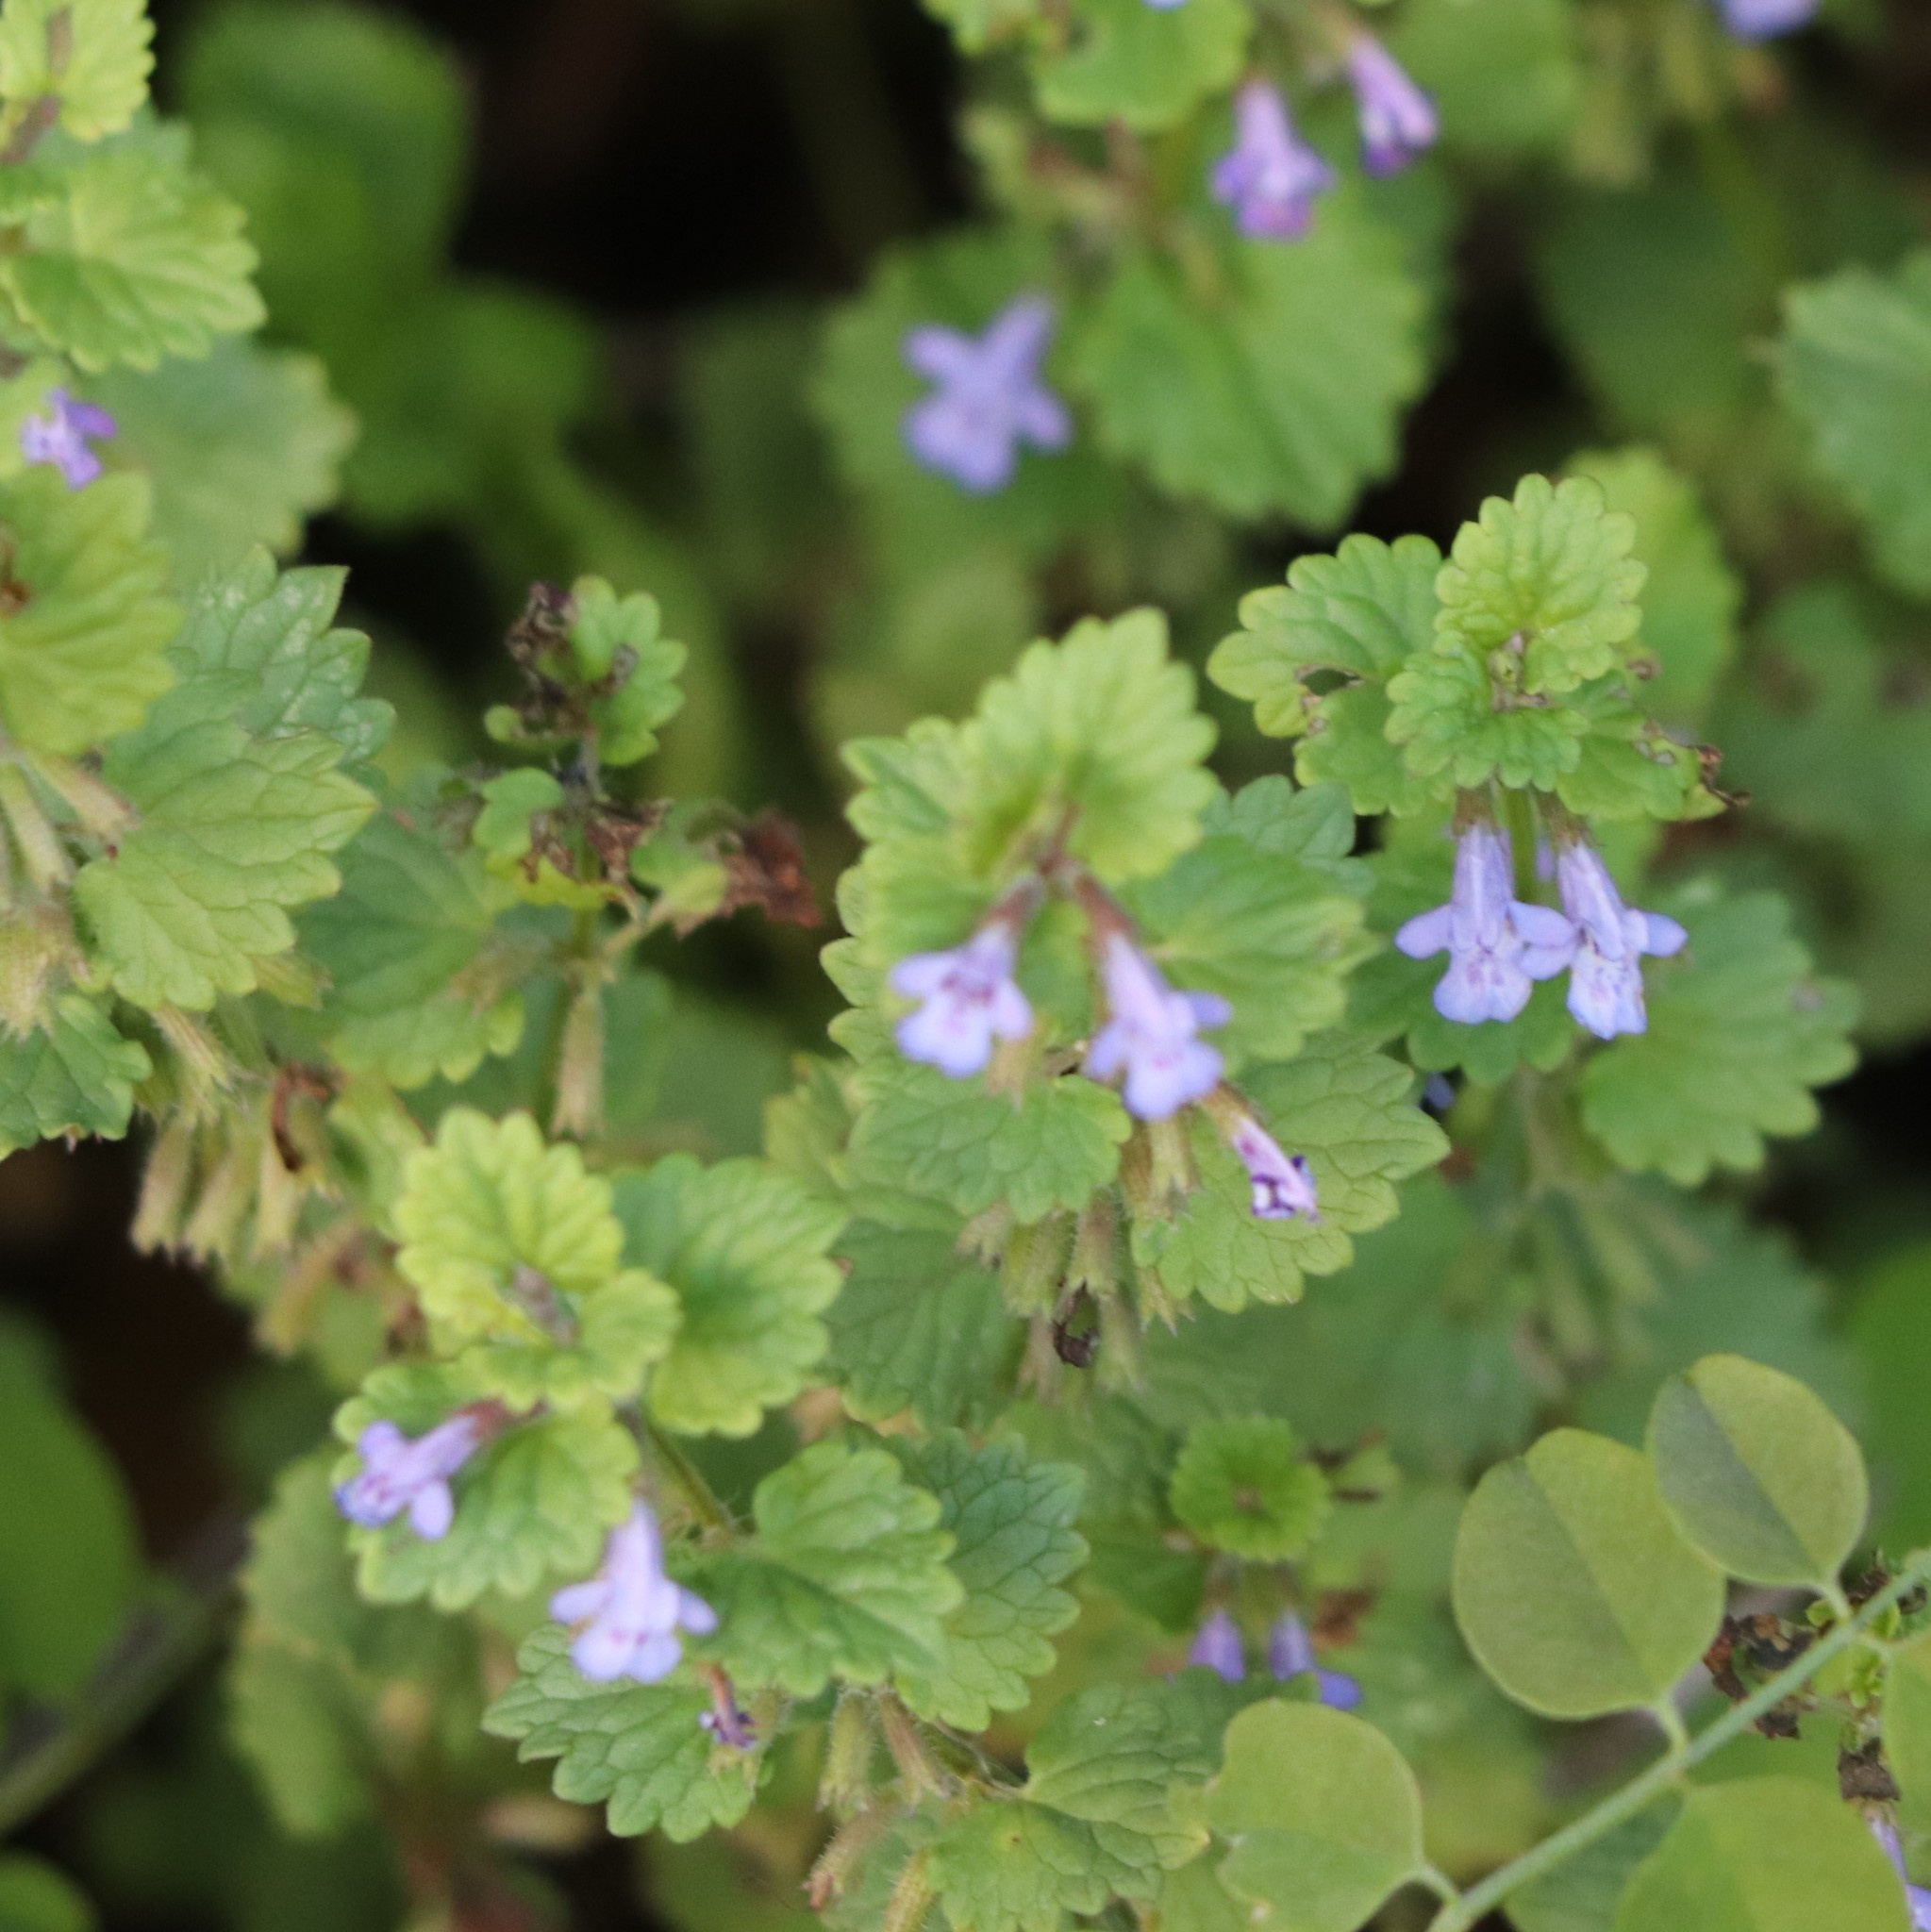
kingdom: Plantae
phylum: Tracheophyta
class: Magnoliopsida
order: Lamiales
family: Lamiaceae
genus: Glechoma
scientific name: Glechoma hederacea
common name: Ground ivy
